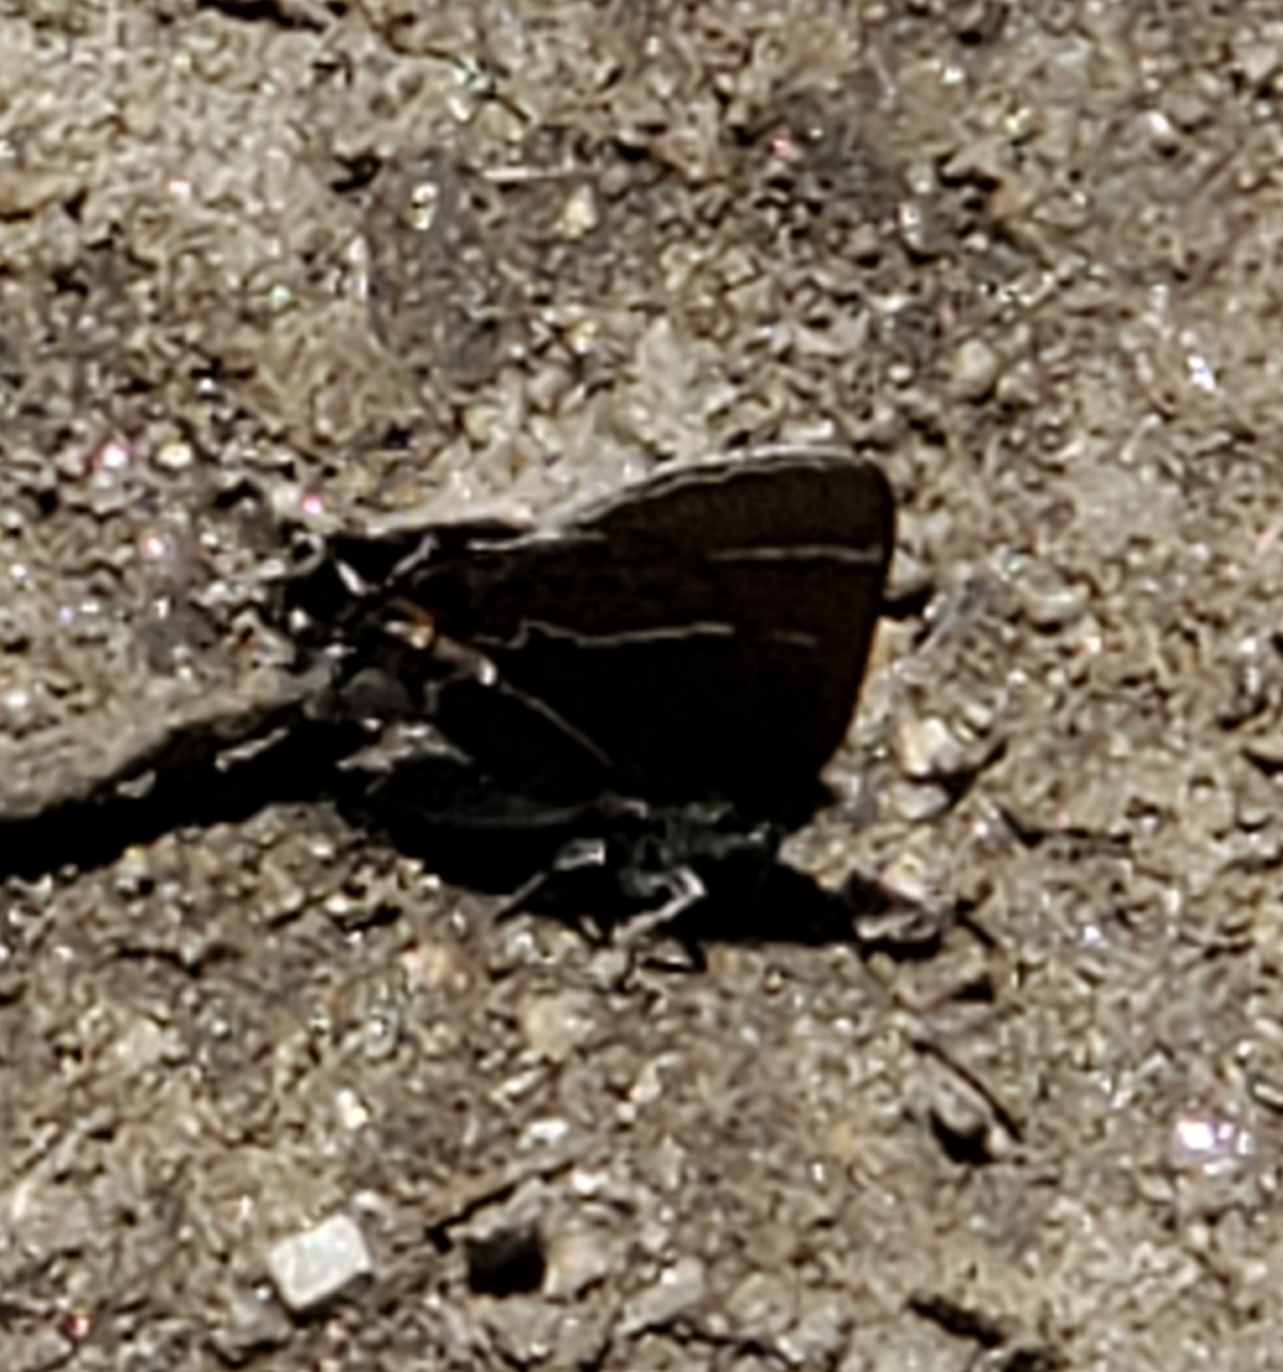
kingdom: Animalia
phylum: Arthropoda
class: Insecta
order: Lepidoptera
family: Lycaenidae
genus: Mitoura
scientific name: Mitoura spinetorum
